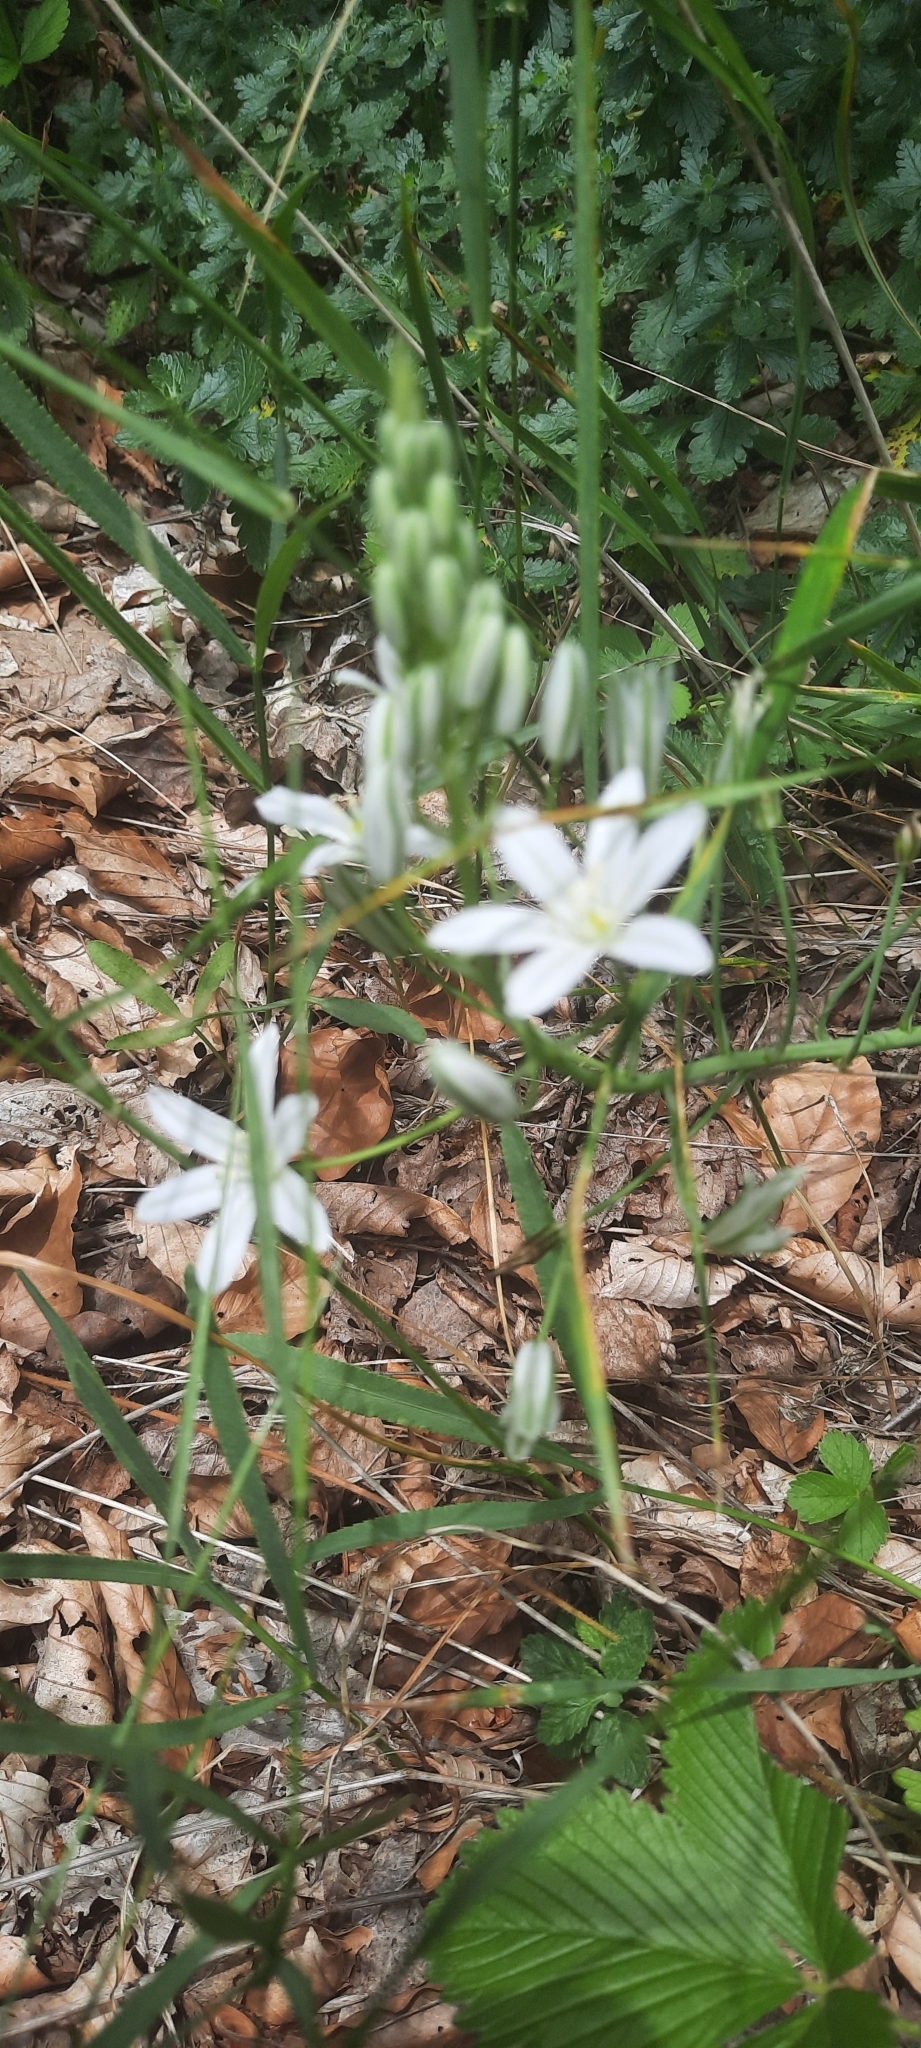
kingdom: Plantae
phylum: Tracheophyta
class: Liliopsida
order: Asparagales
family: Asparagaceae
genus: Ornithogalum
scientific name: Ornithogalum ponticum
